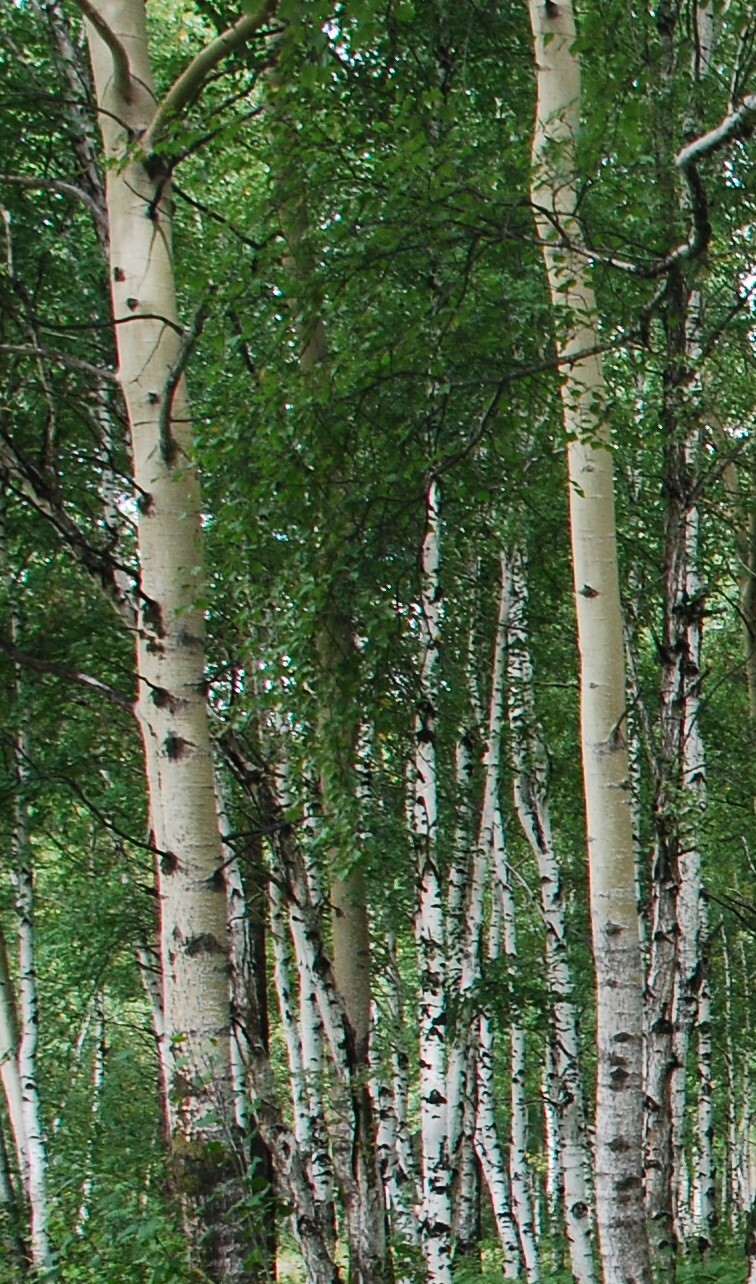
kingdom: Plantae
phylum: Tracheophyta
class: Magnoliopsida
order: Malpighiales
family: Salicaceae
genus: Populus
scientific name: Populus tremula
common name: European aspen
